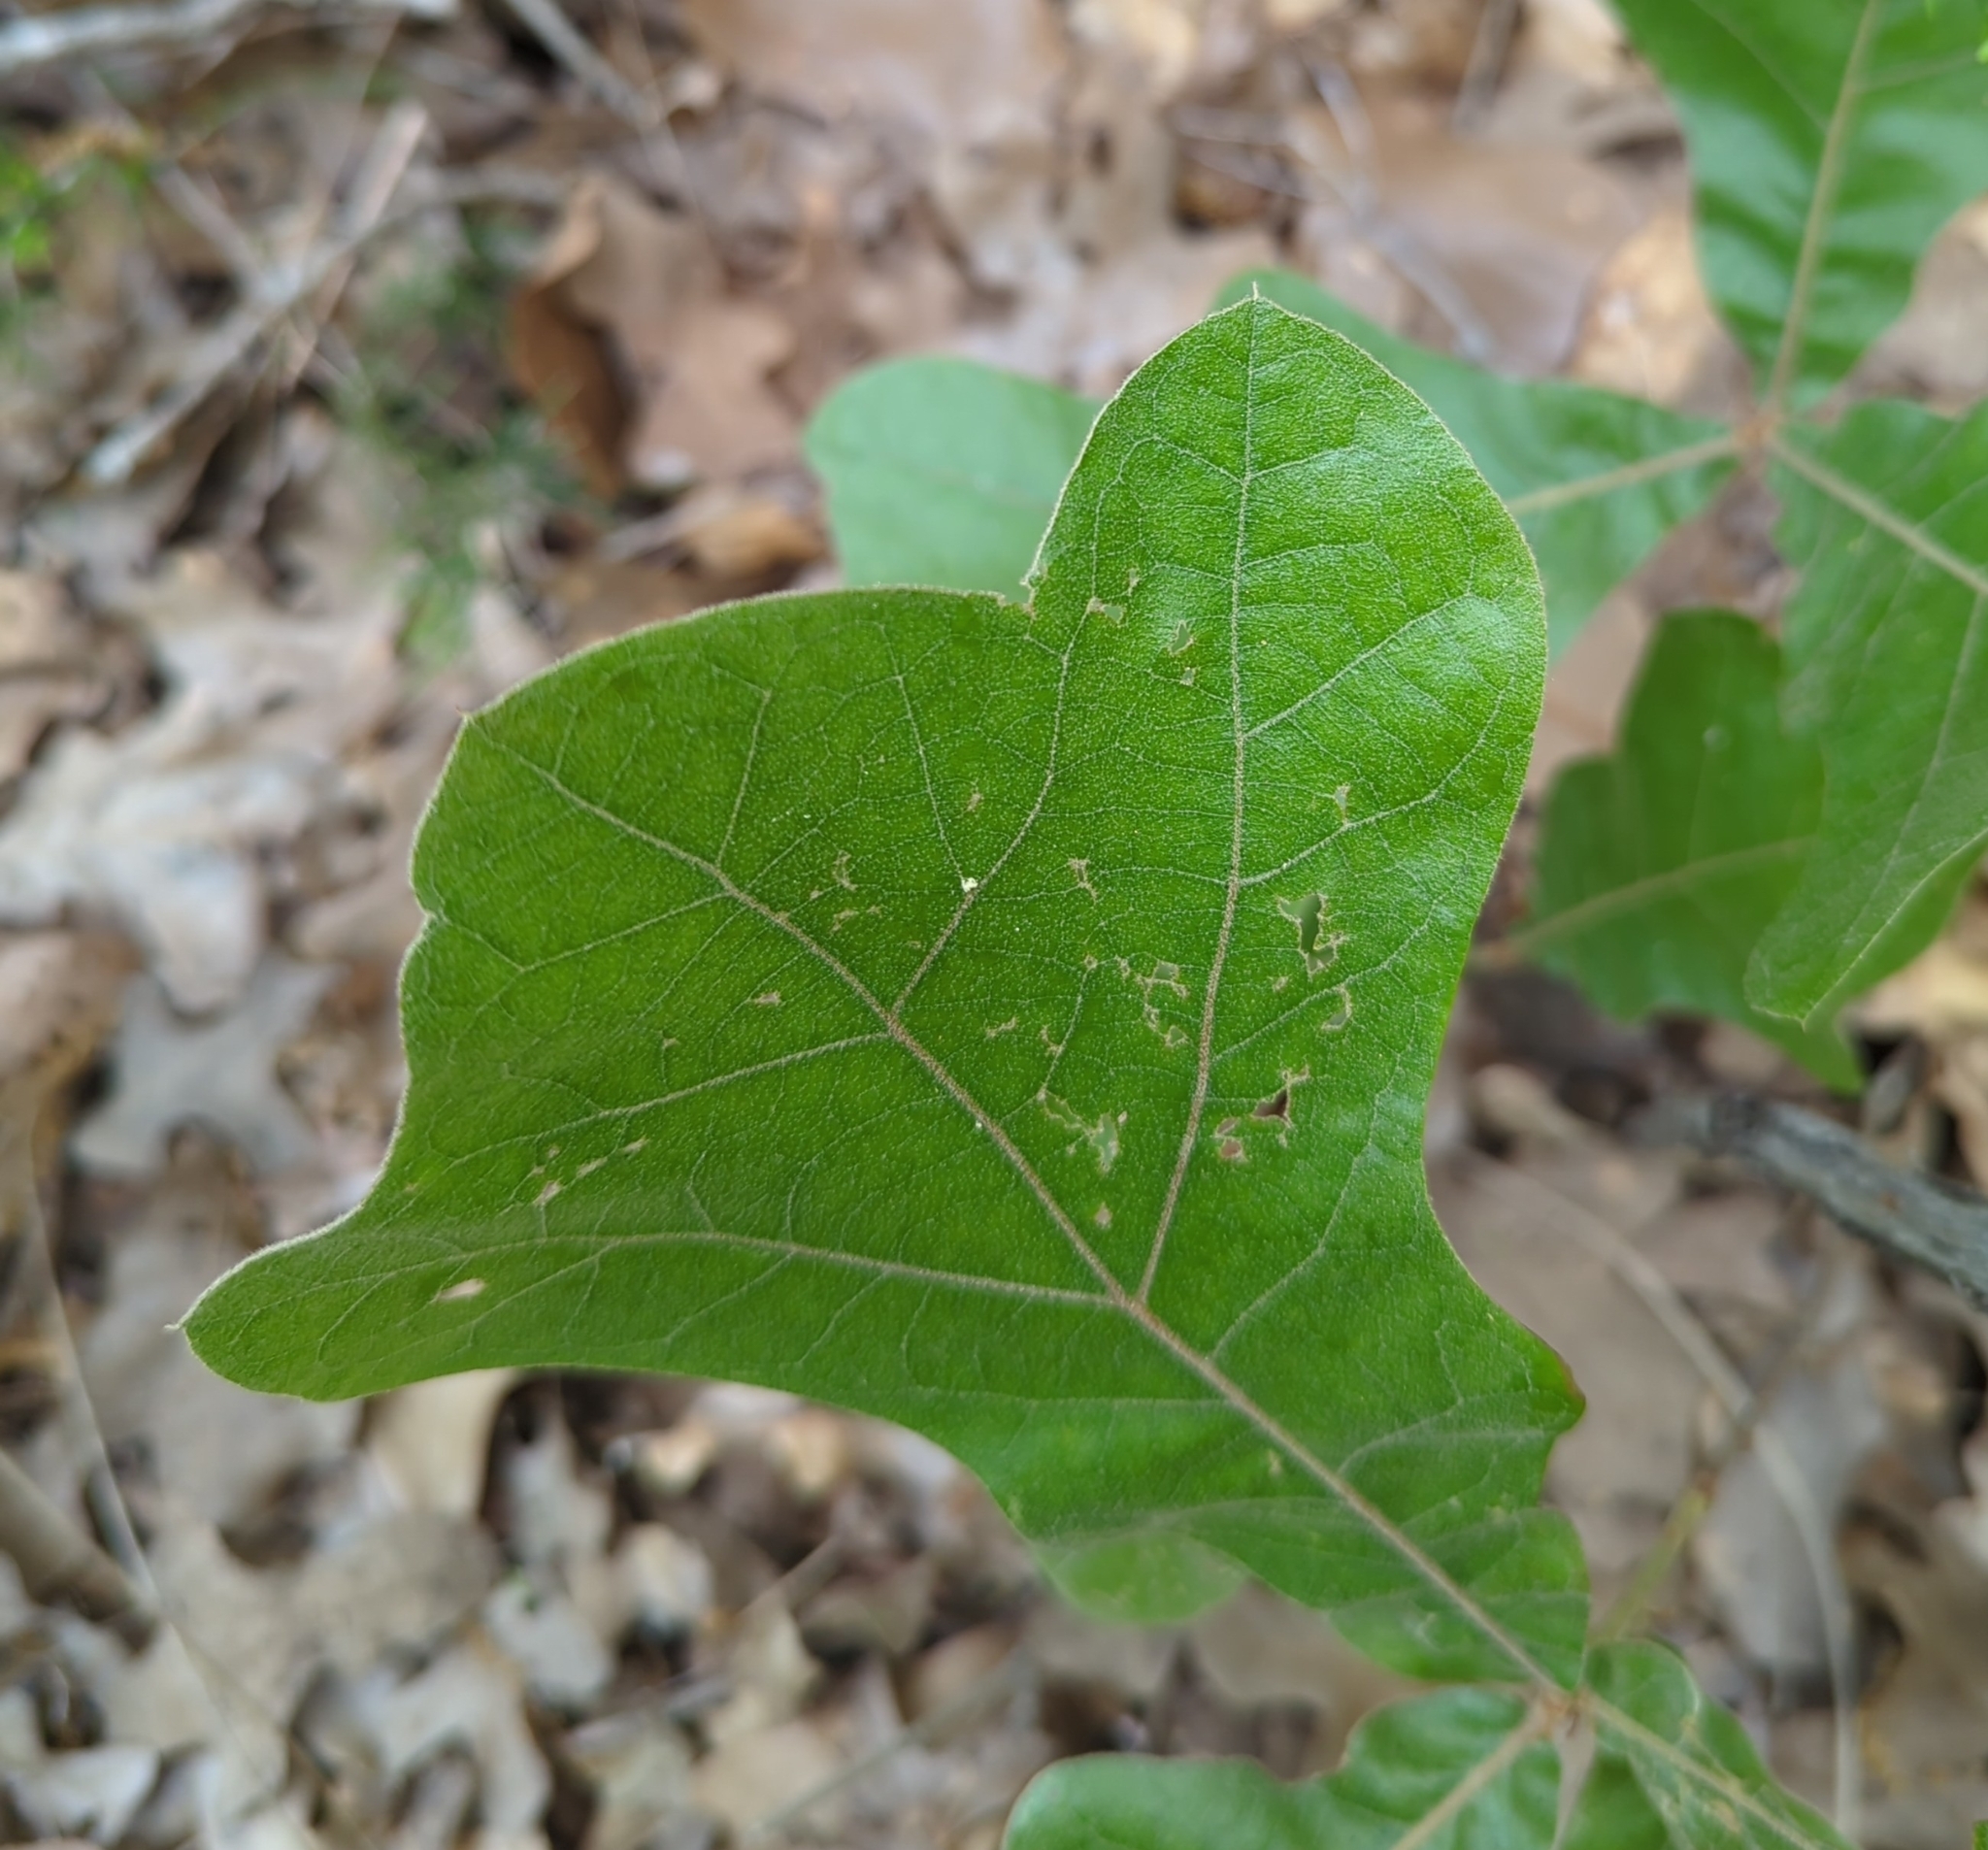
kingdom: Plantae
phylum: Tracheophyta
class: Magnoliopsida
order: Fagales
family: Fagaceae
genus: Quercus
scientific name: Quercus marilandica
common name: Blackjack oak
